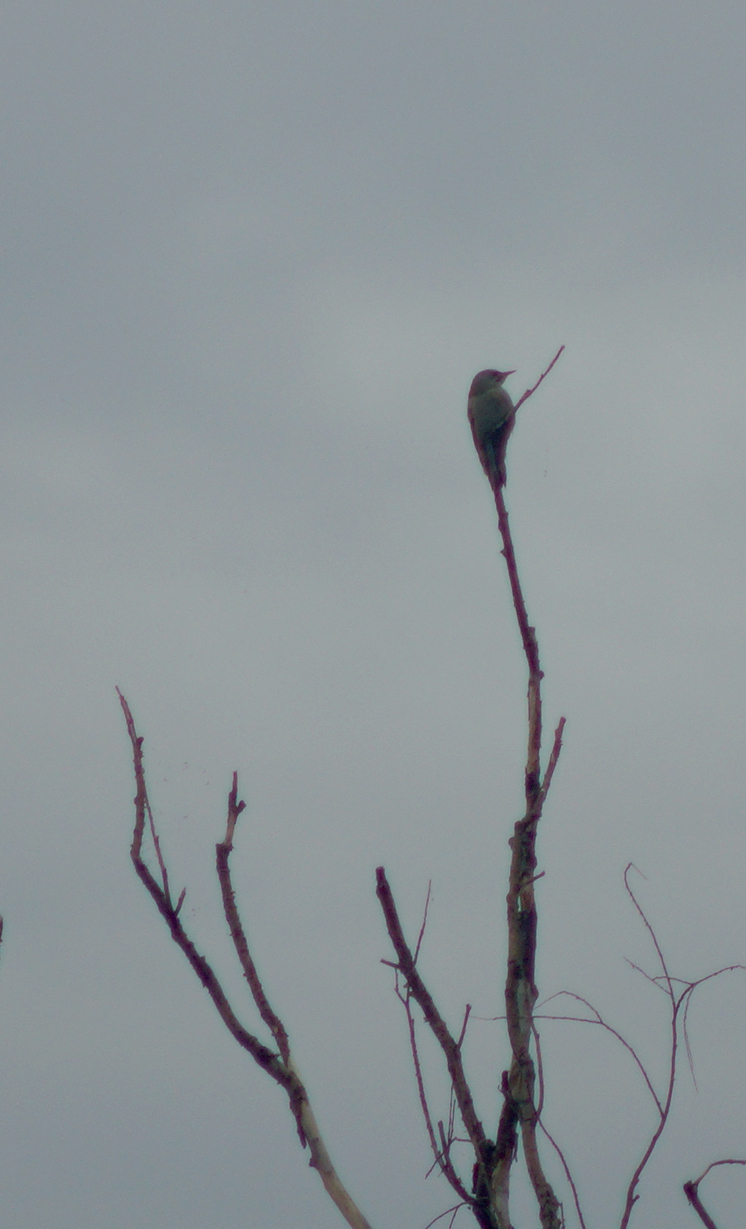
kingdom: Animalia
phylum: Chordata
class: Aves
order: Piciformes
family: Picidae
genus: Picus
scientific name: Picus canus
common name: Grey-headed woodpecker
